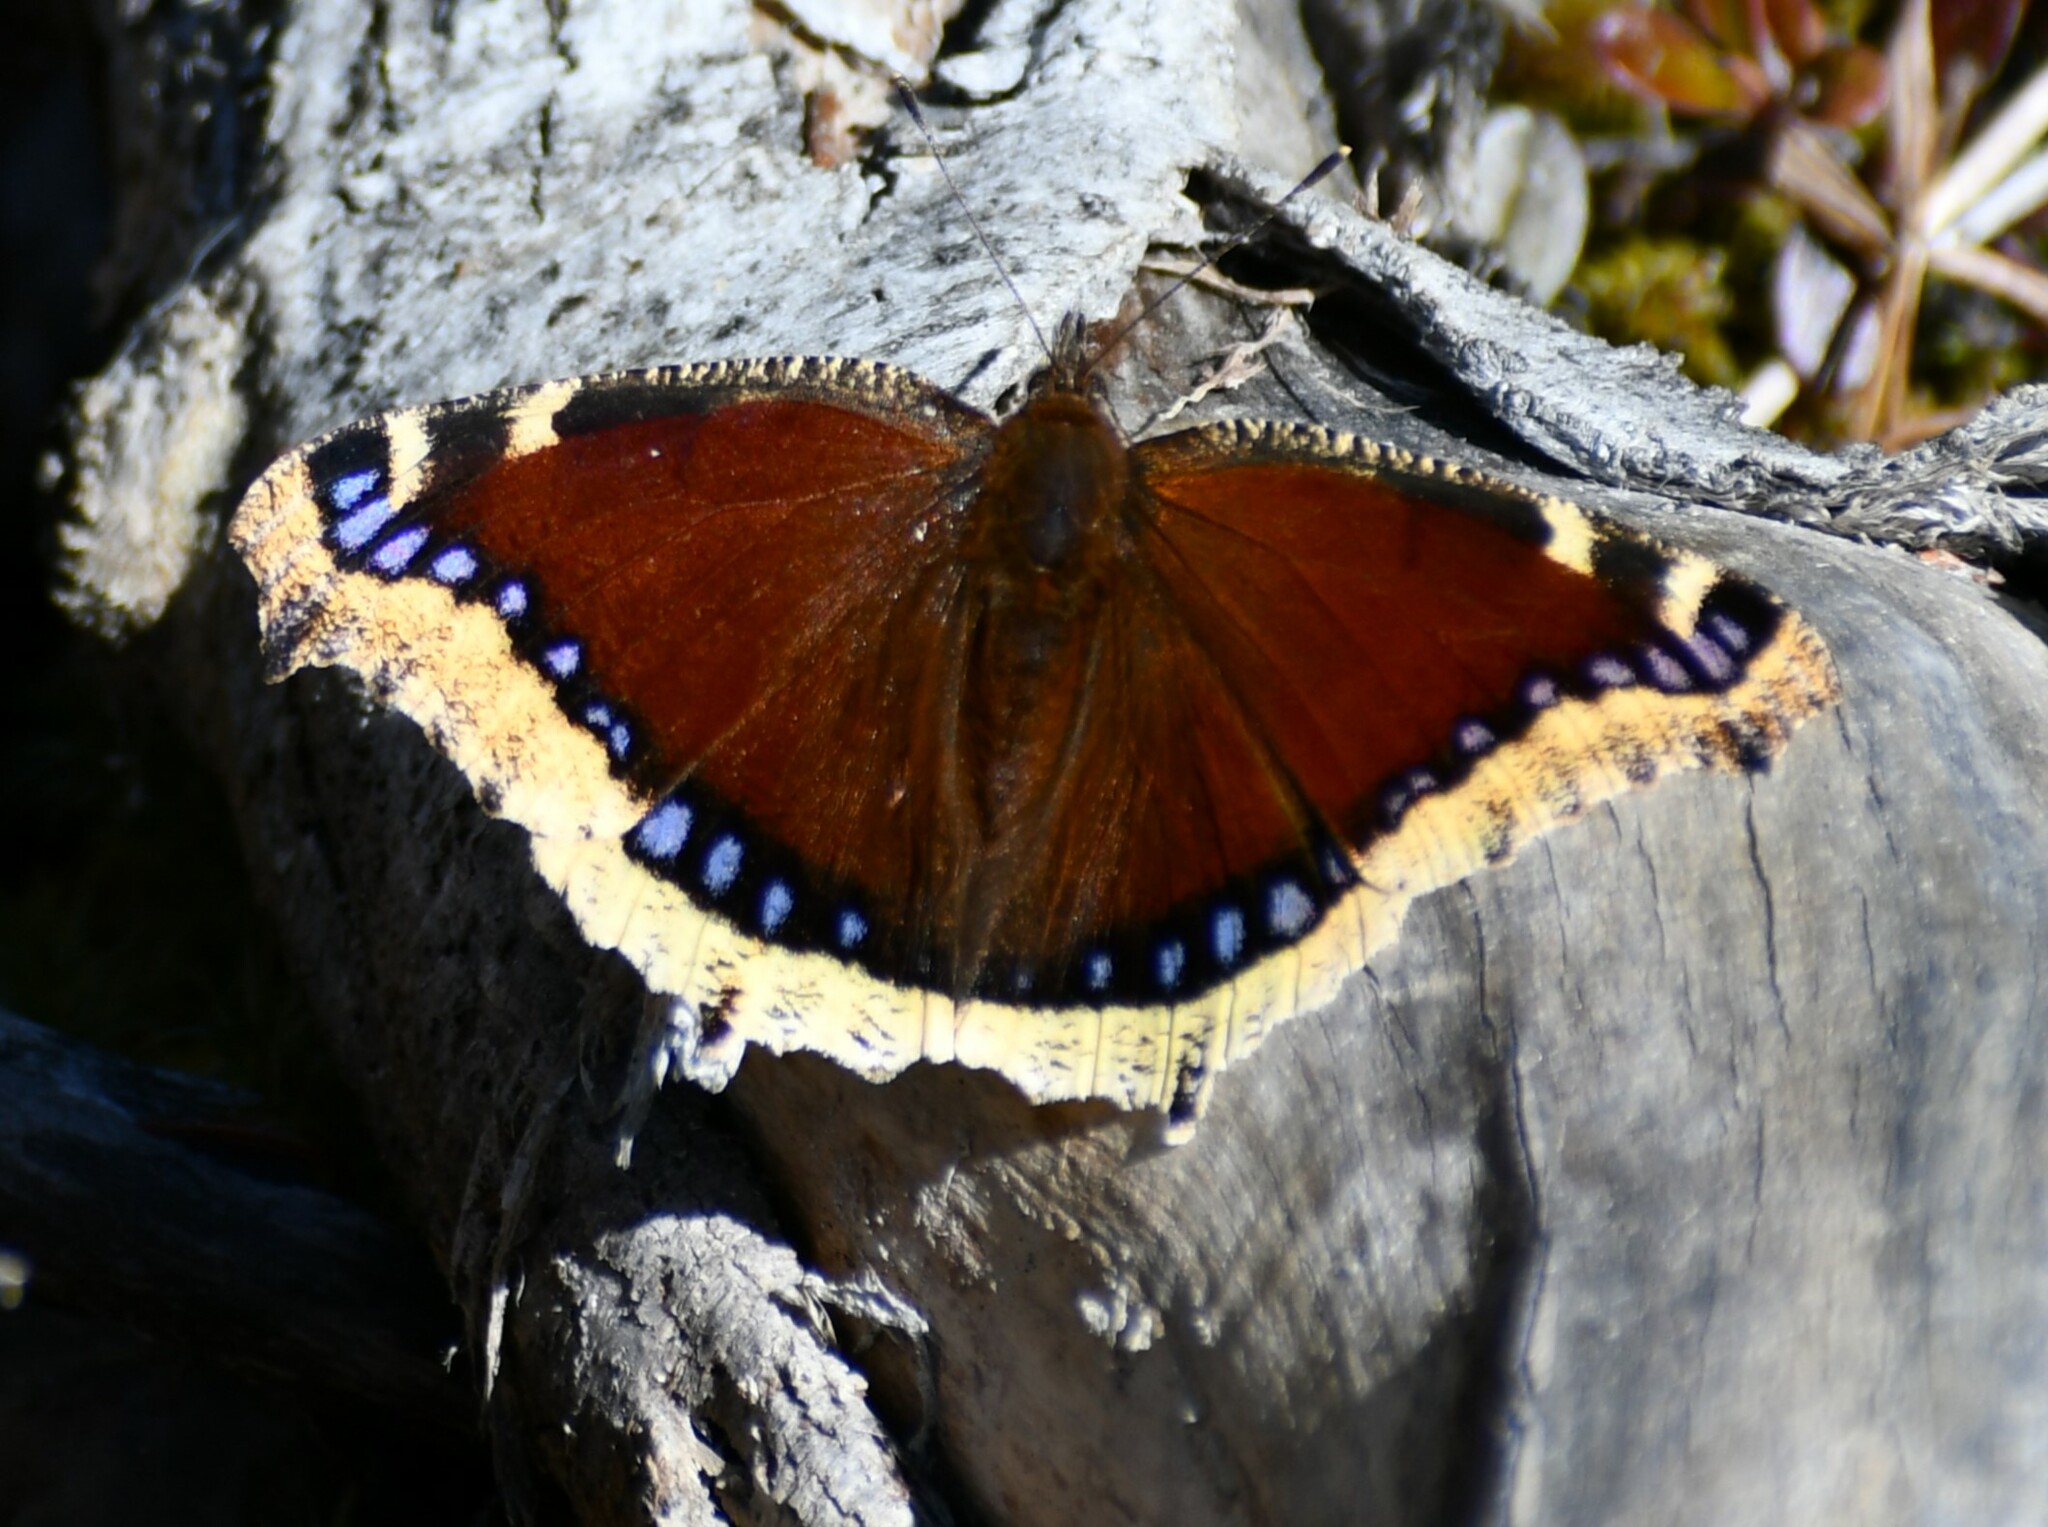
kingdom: Animalia
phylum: Arthropoda
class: Insecta
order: Lepidoptera
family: Nymphalidae
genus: Nymphalis
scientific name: Nymphalis antiopa
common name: Camberwell beauty
